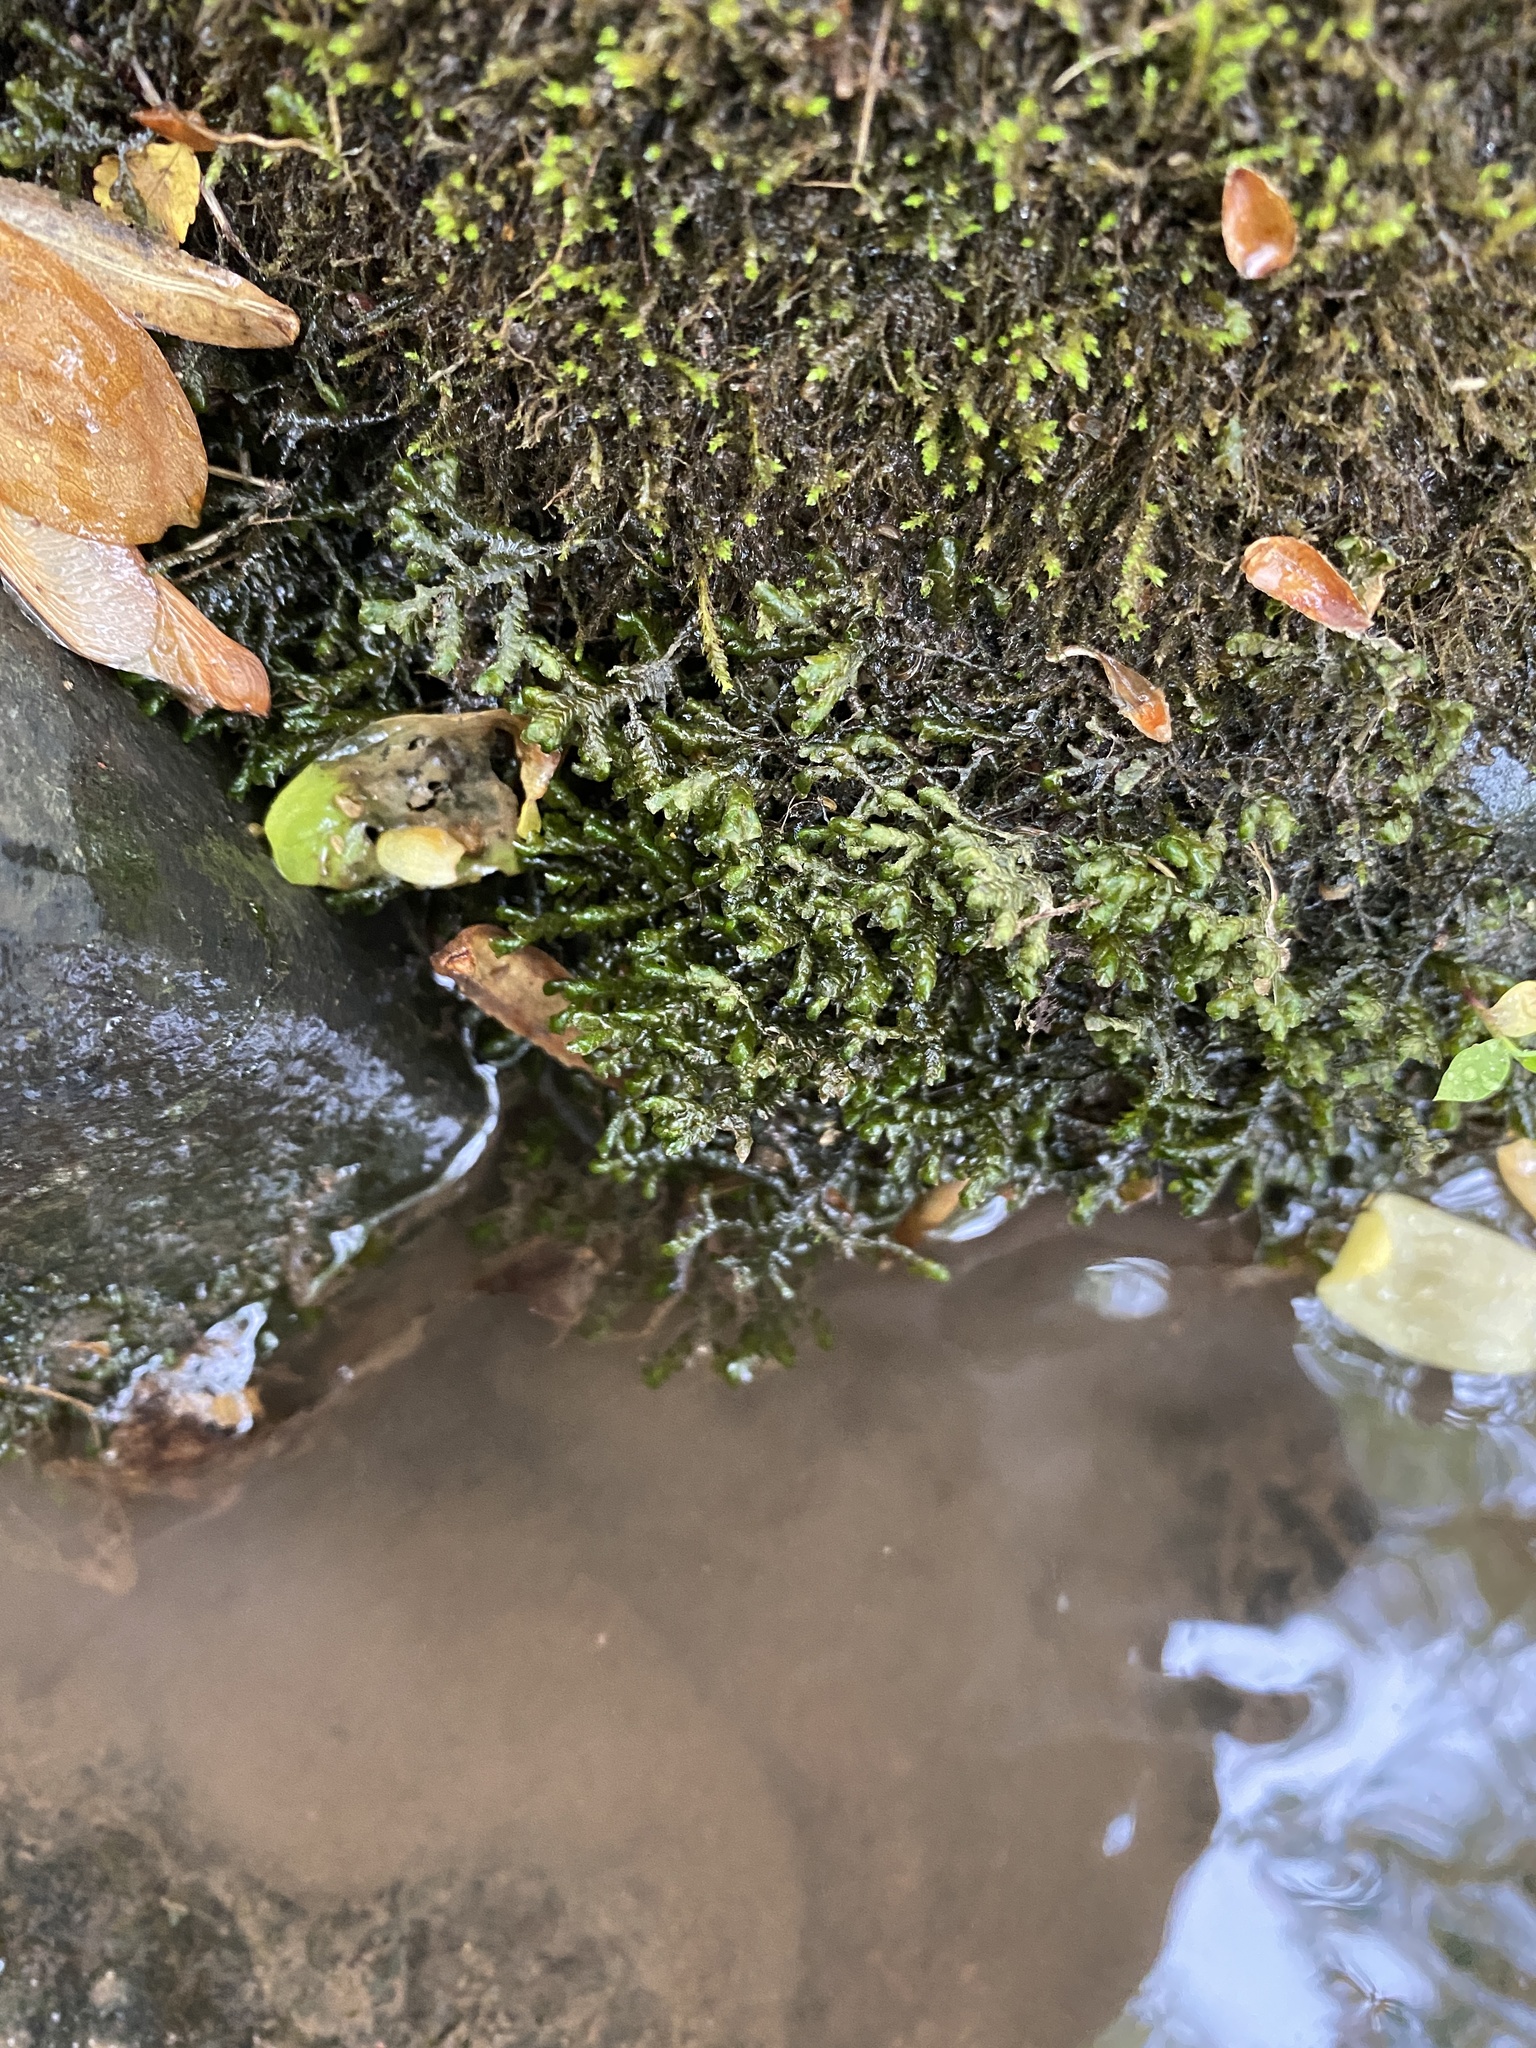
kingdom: Plantae
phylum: Marchantiophyta
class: Jungermanniopsida
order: Porellales
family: Porellaceae
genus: Porella
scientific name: Porella platyphylla
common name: Wall scalewort
